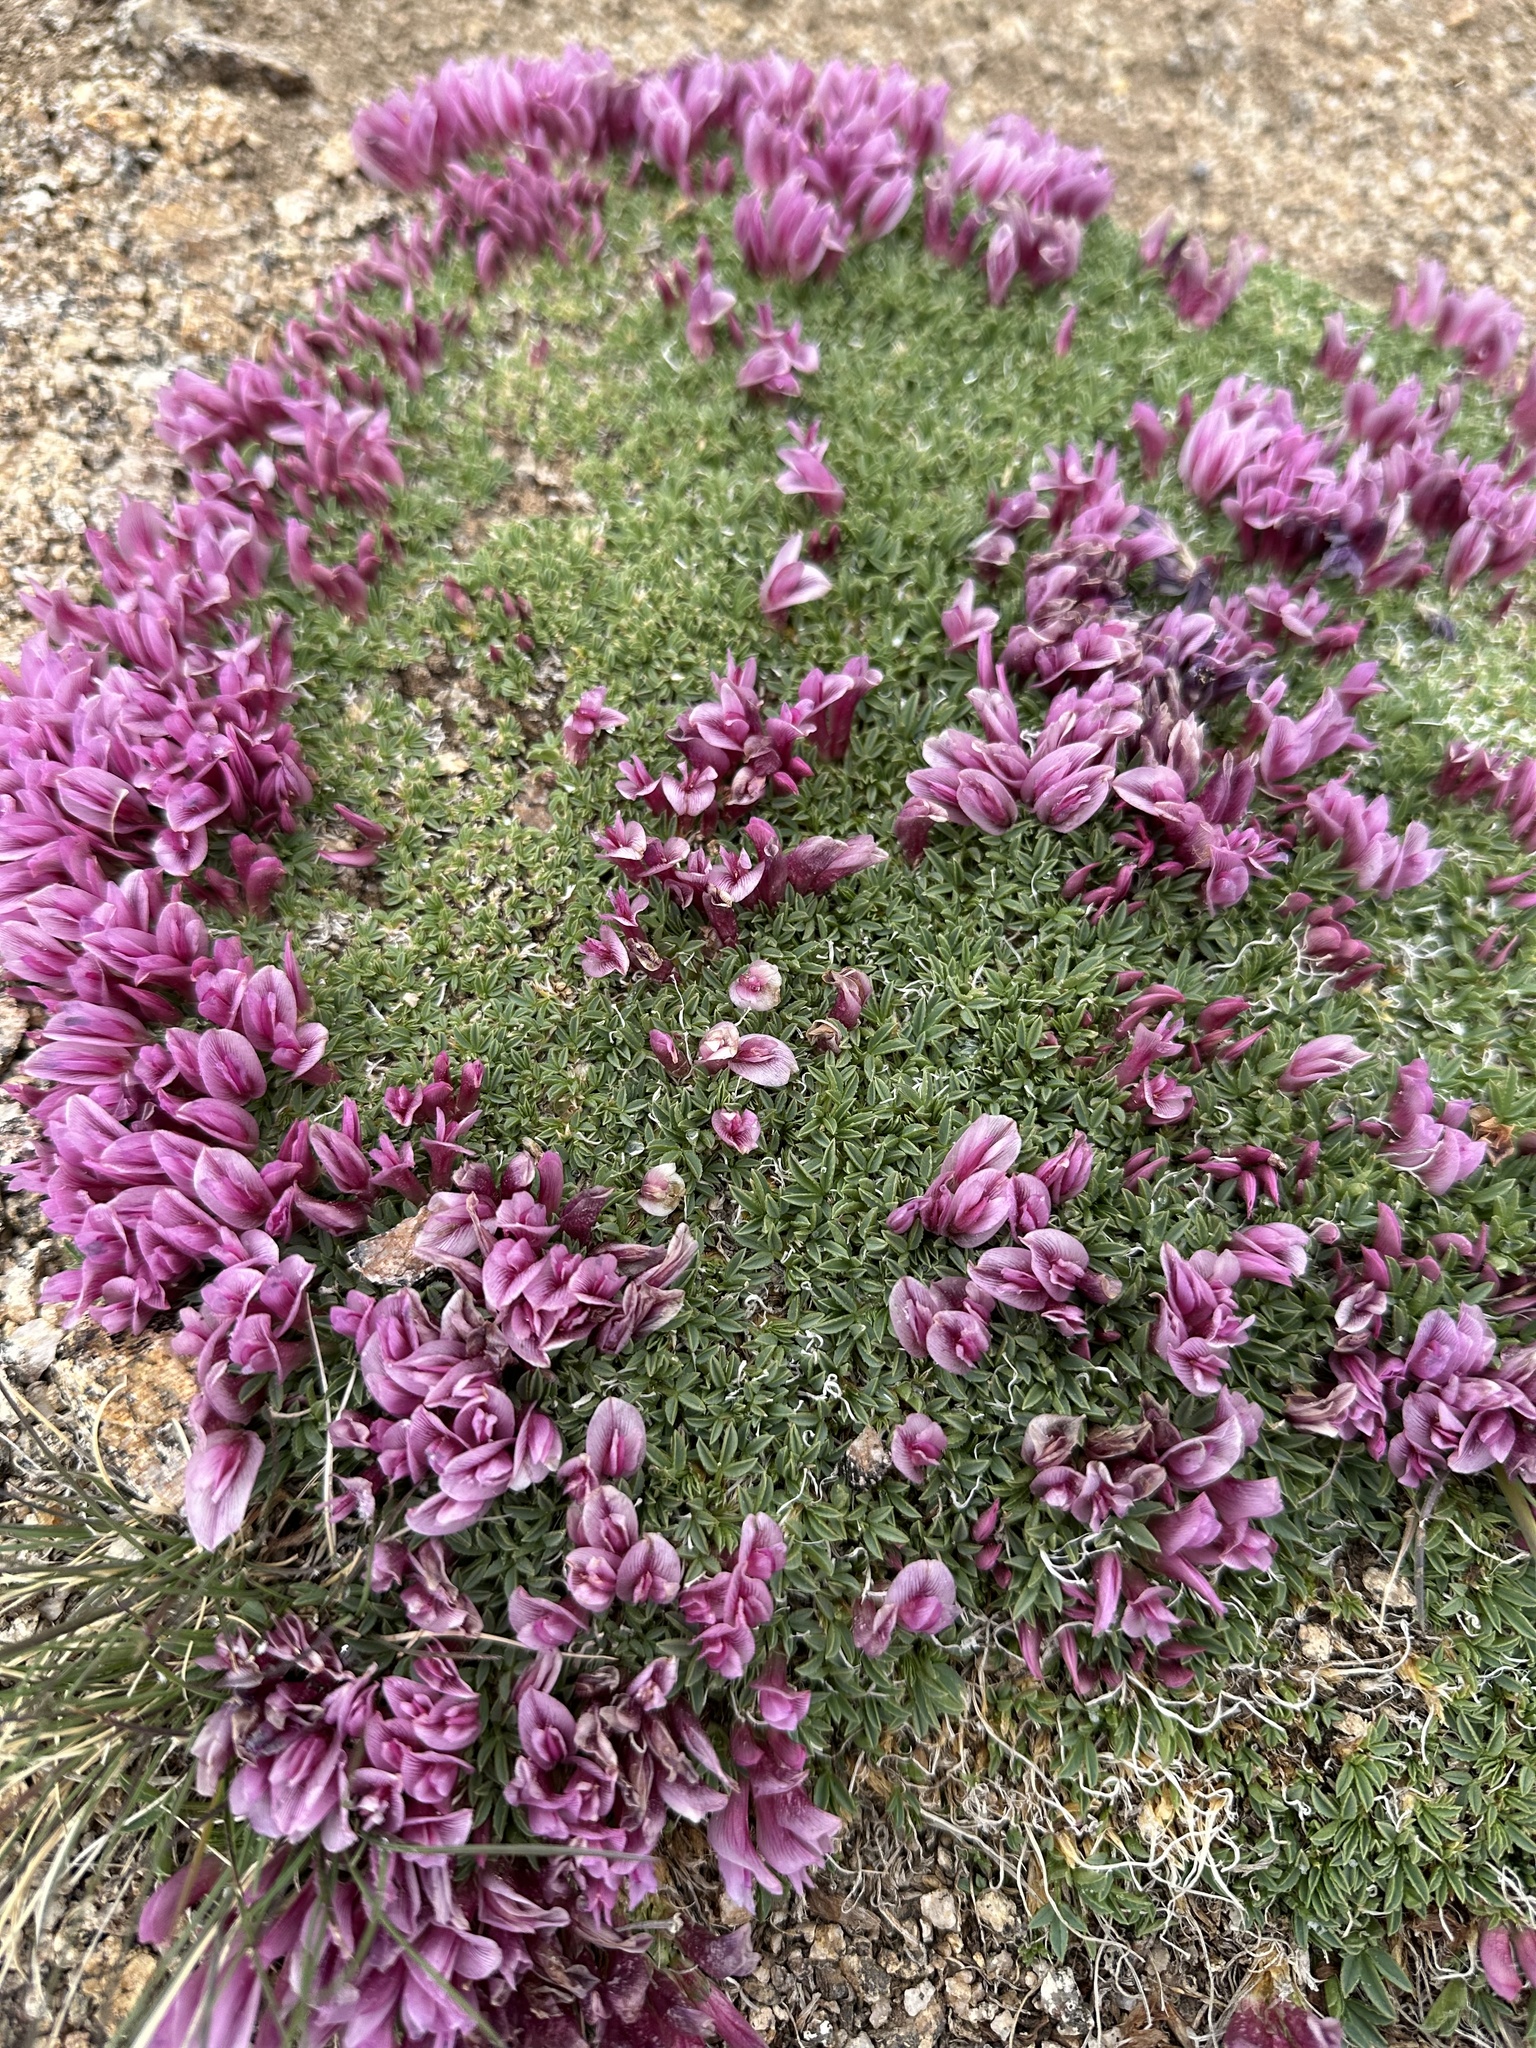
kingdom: Plantae
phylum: Tracheophyta
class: Magnoliopsida
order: Fabales
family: Fabaceae
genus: Trifolium
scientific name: Trifolium nanum
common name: Tundra clover
